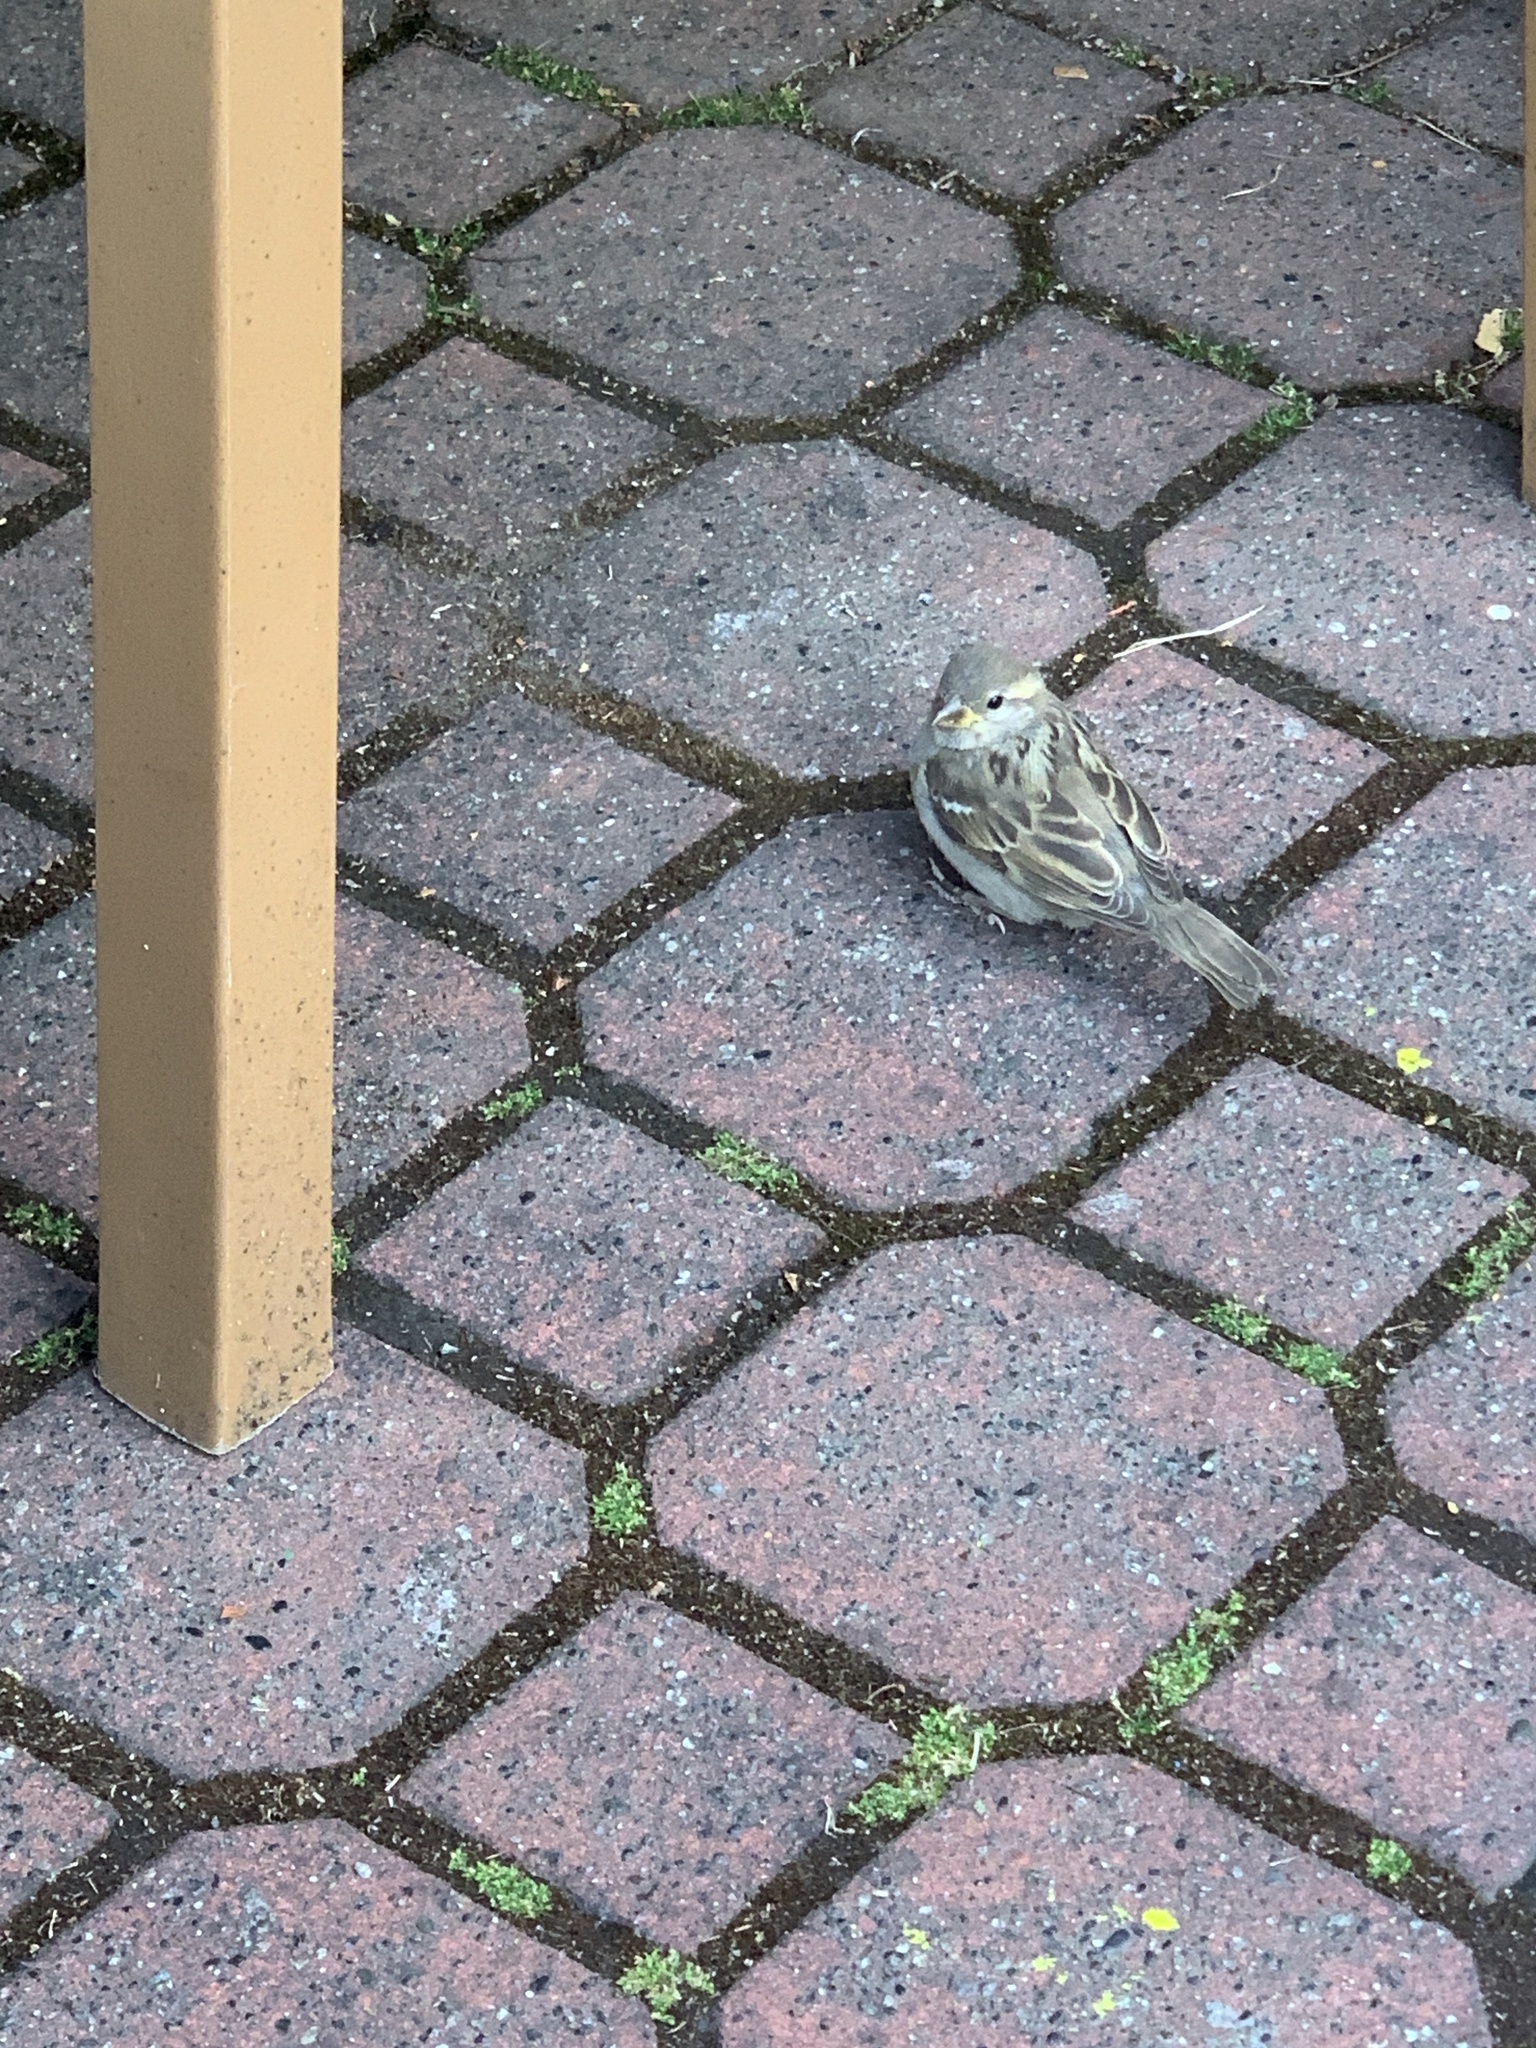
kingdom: Animalia
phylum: Chordata
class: Aves
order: Passeriformes
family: Passeridae
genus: Passer
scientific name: Passer domesticus
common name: House sparrow
